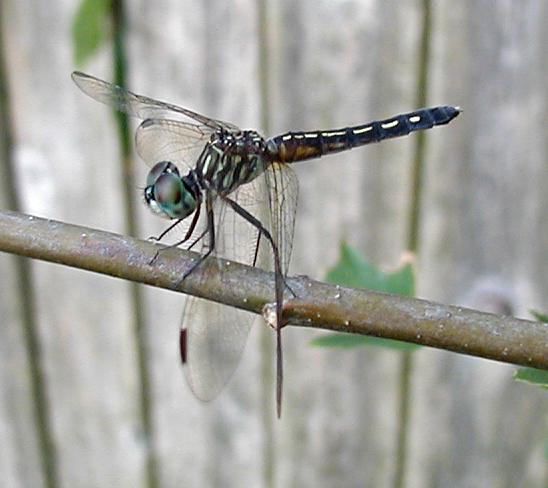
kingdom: Animalia
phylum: Arthropoda
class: Insecta
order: Odonata
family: Libellulidae
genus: Pachydiplax
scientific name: Pachydiplax longipennis
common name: Blue dasher
